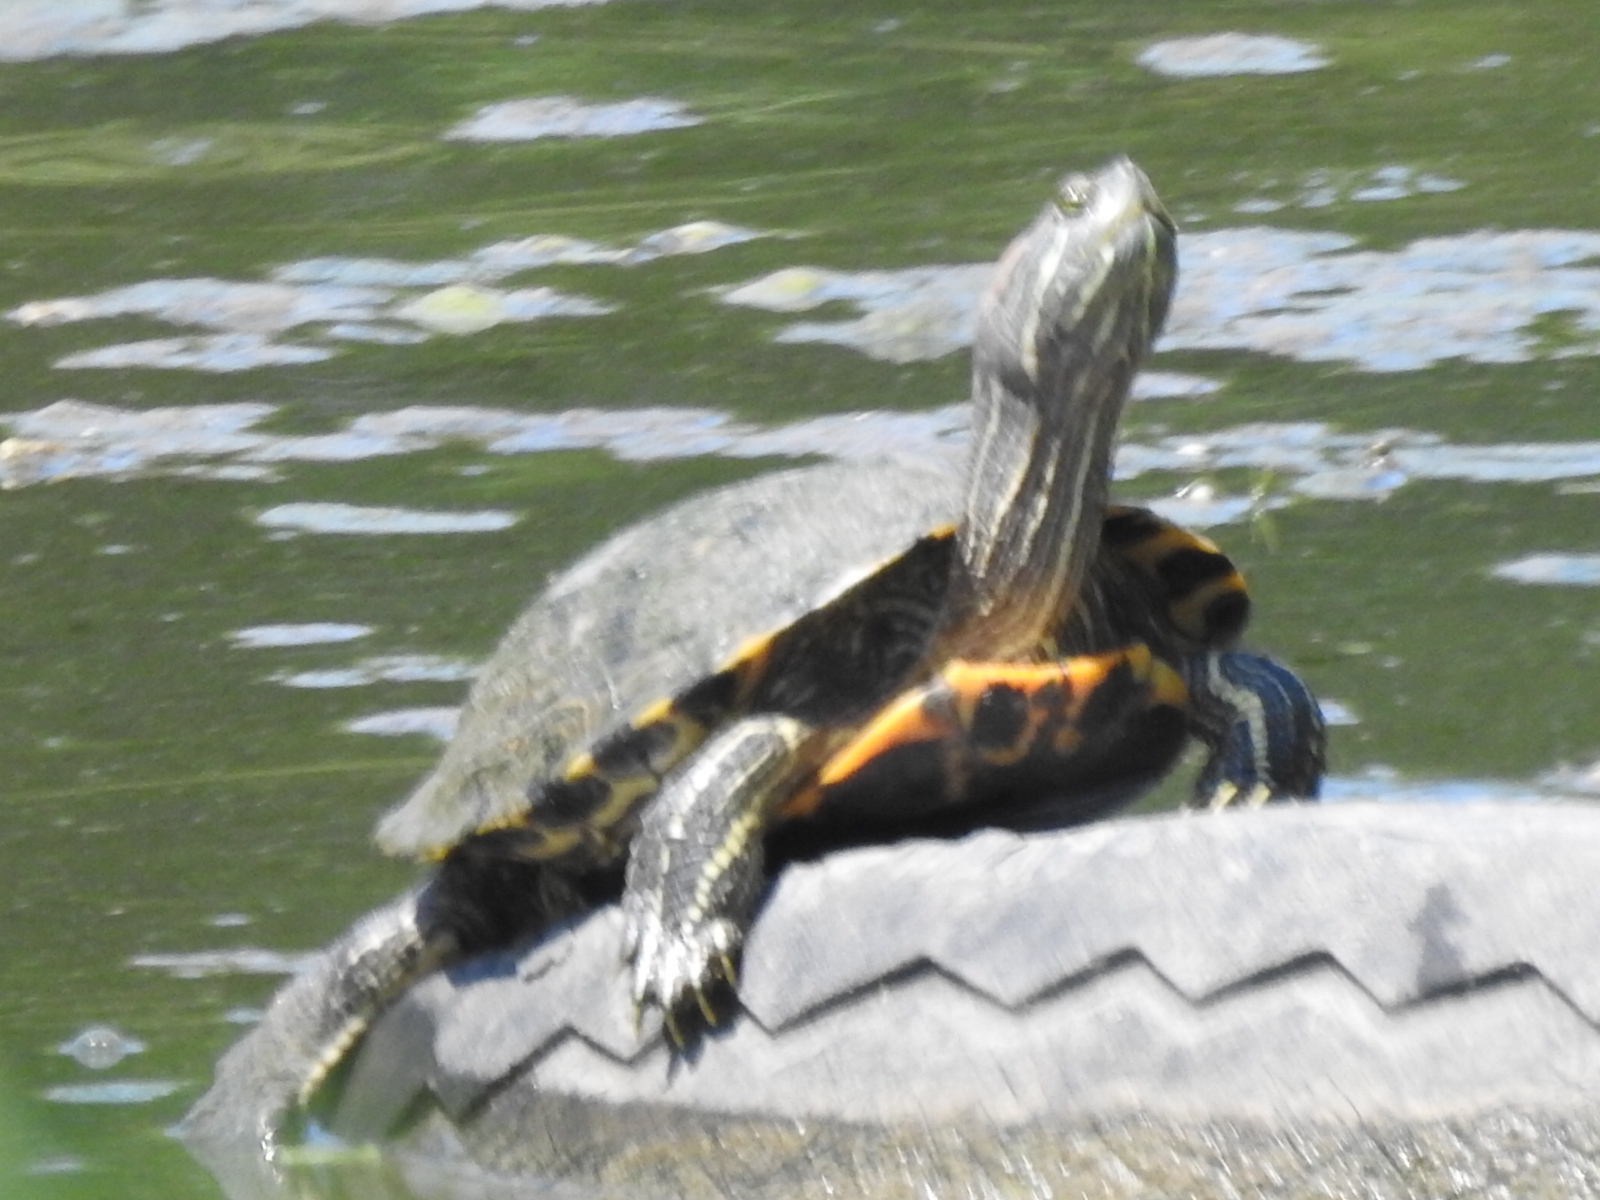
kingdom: Animalia
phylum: Chordata
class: Testudines
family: Emydidae
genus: Trachemys
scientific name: Trachemys scripta
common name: Slider
